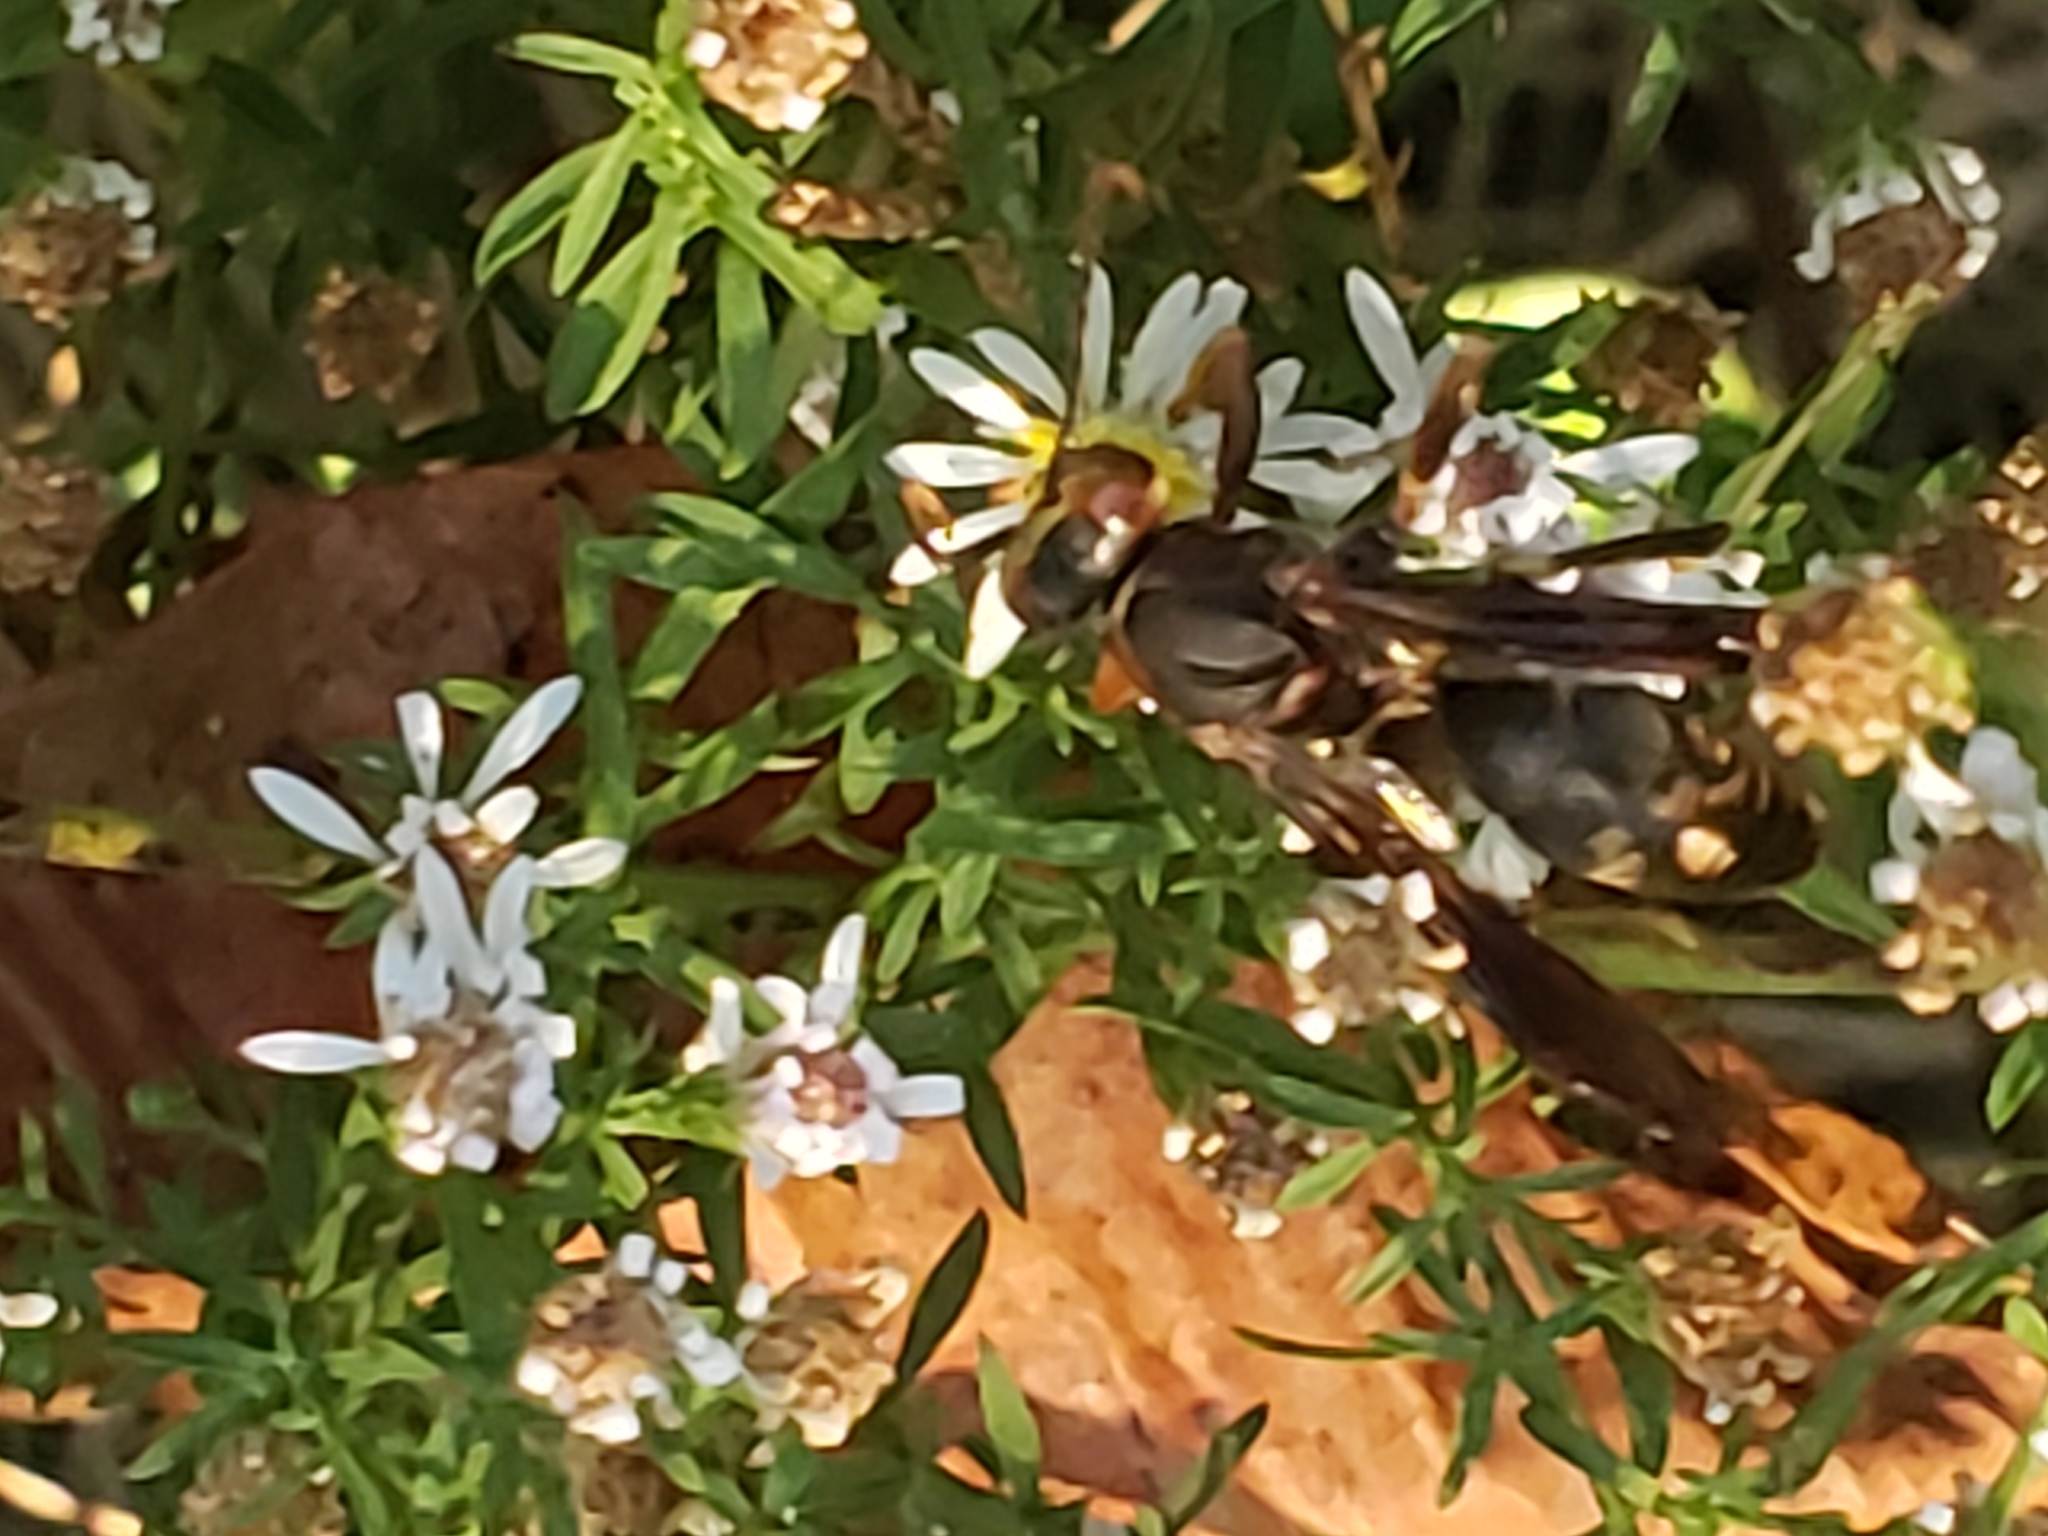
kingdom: Animalia
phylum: Arthropoda
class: Insecta
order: Hymenoptera
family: Eumenidae
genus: Polistes
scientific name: Polistes metricus
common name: Metric paper wasp
